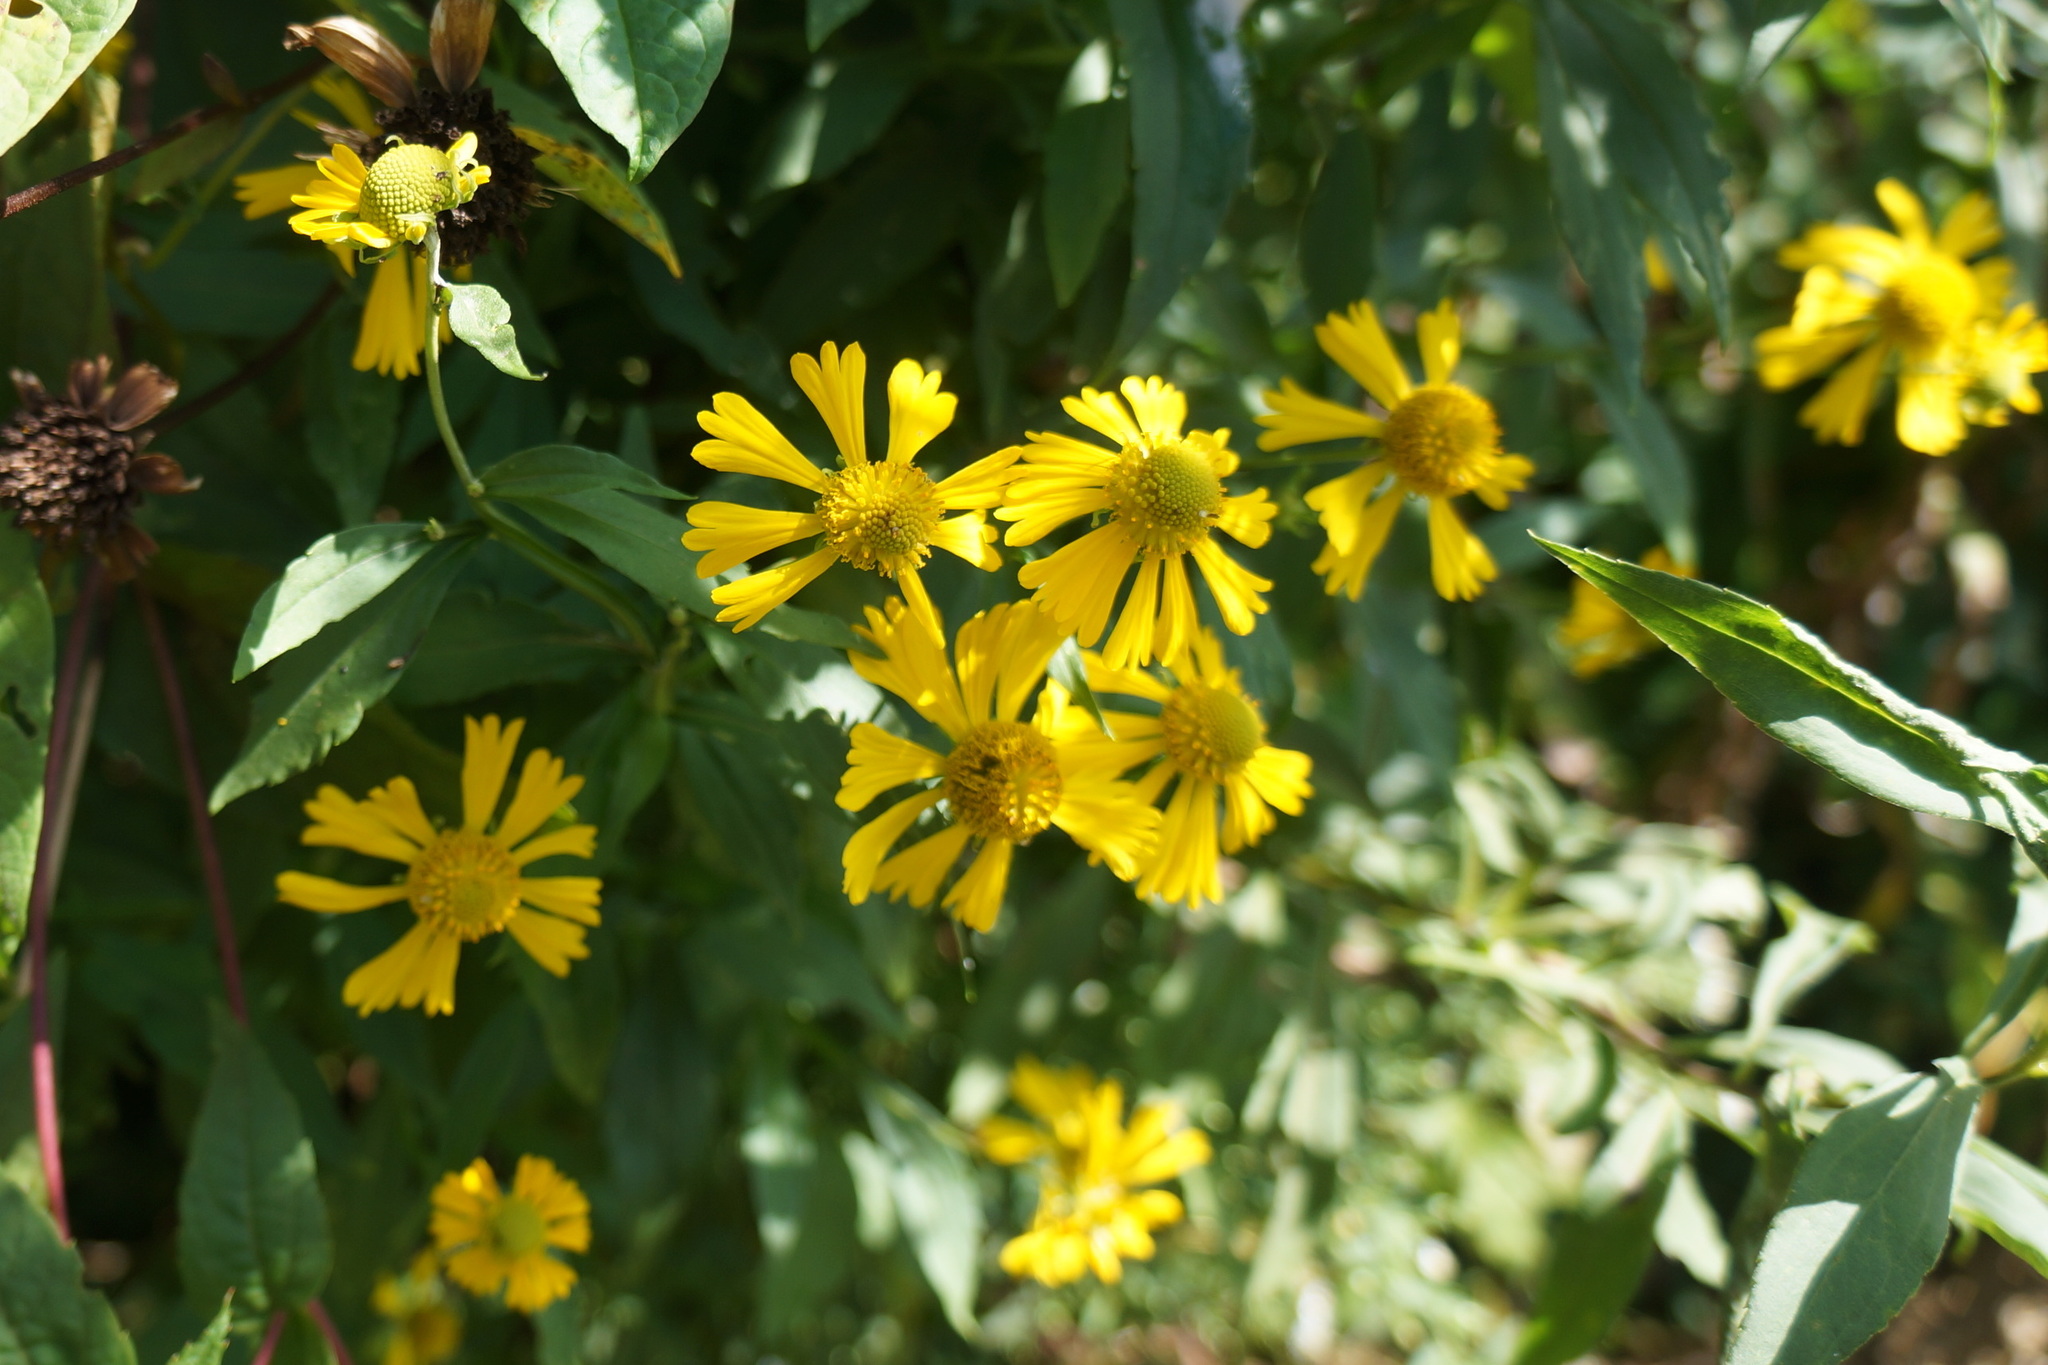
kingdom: Plantae
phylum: Tracheophyta
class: Magnoliopsida
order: Asterales
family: Asteraceae
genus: Helenium
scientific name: Helenium autumnale
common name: Sneezeweed
